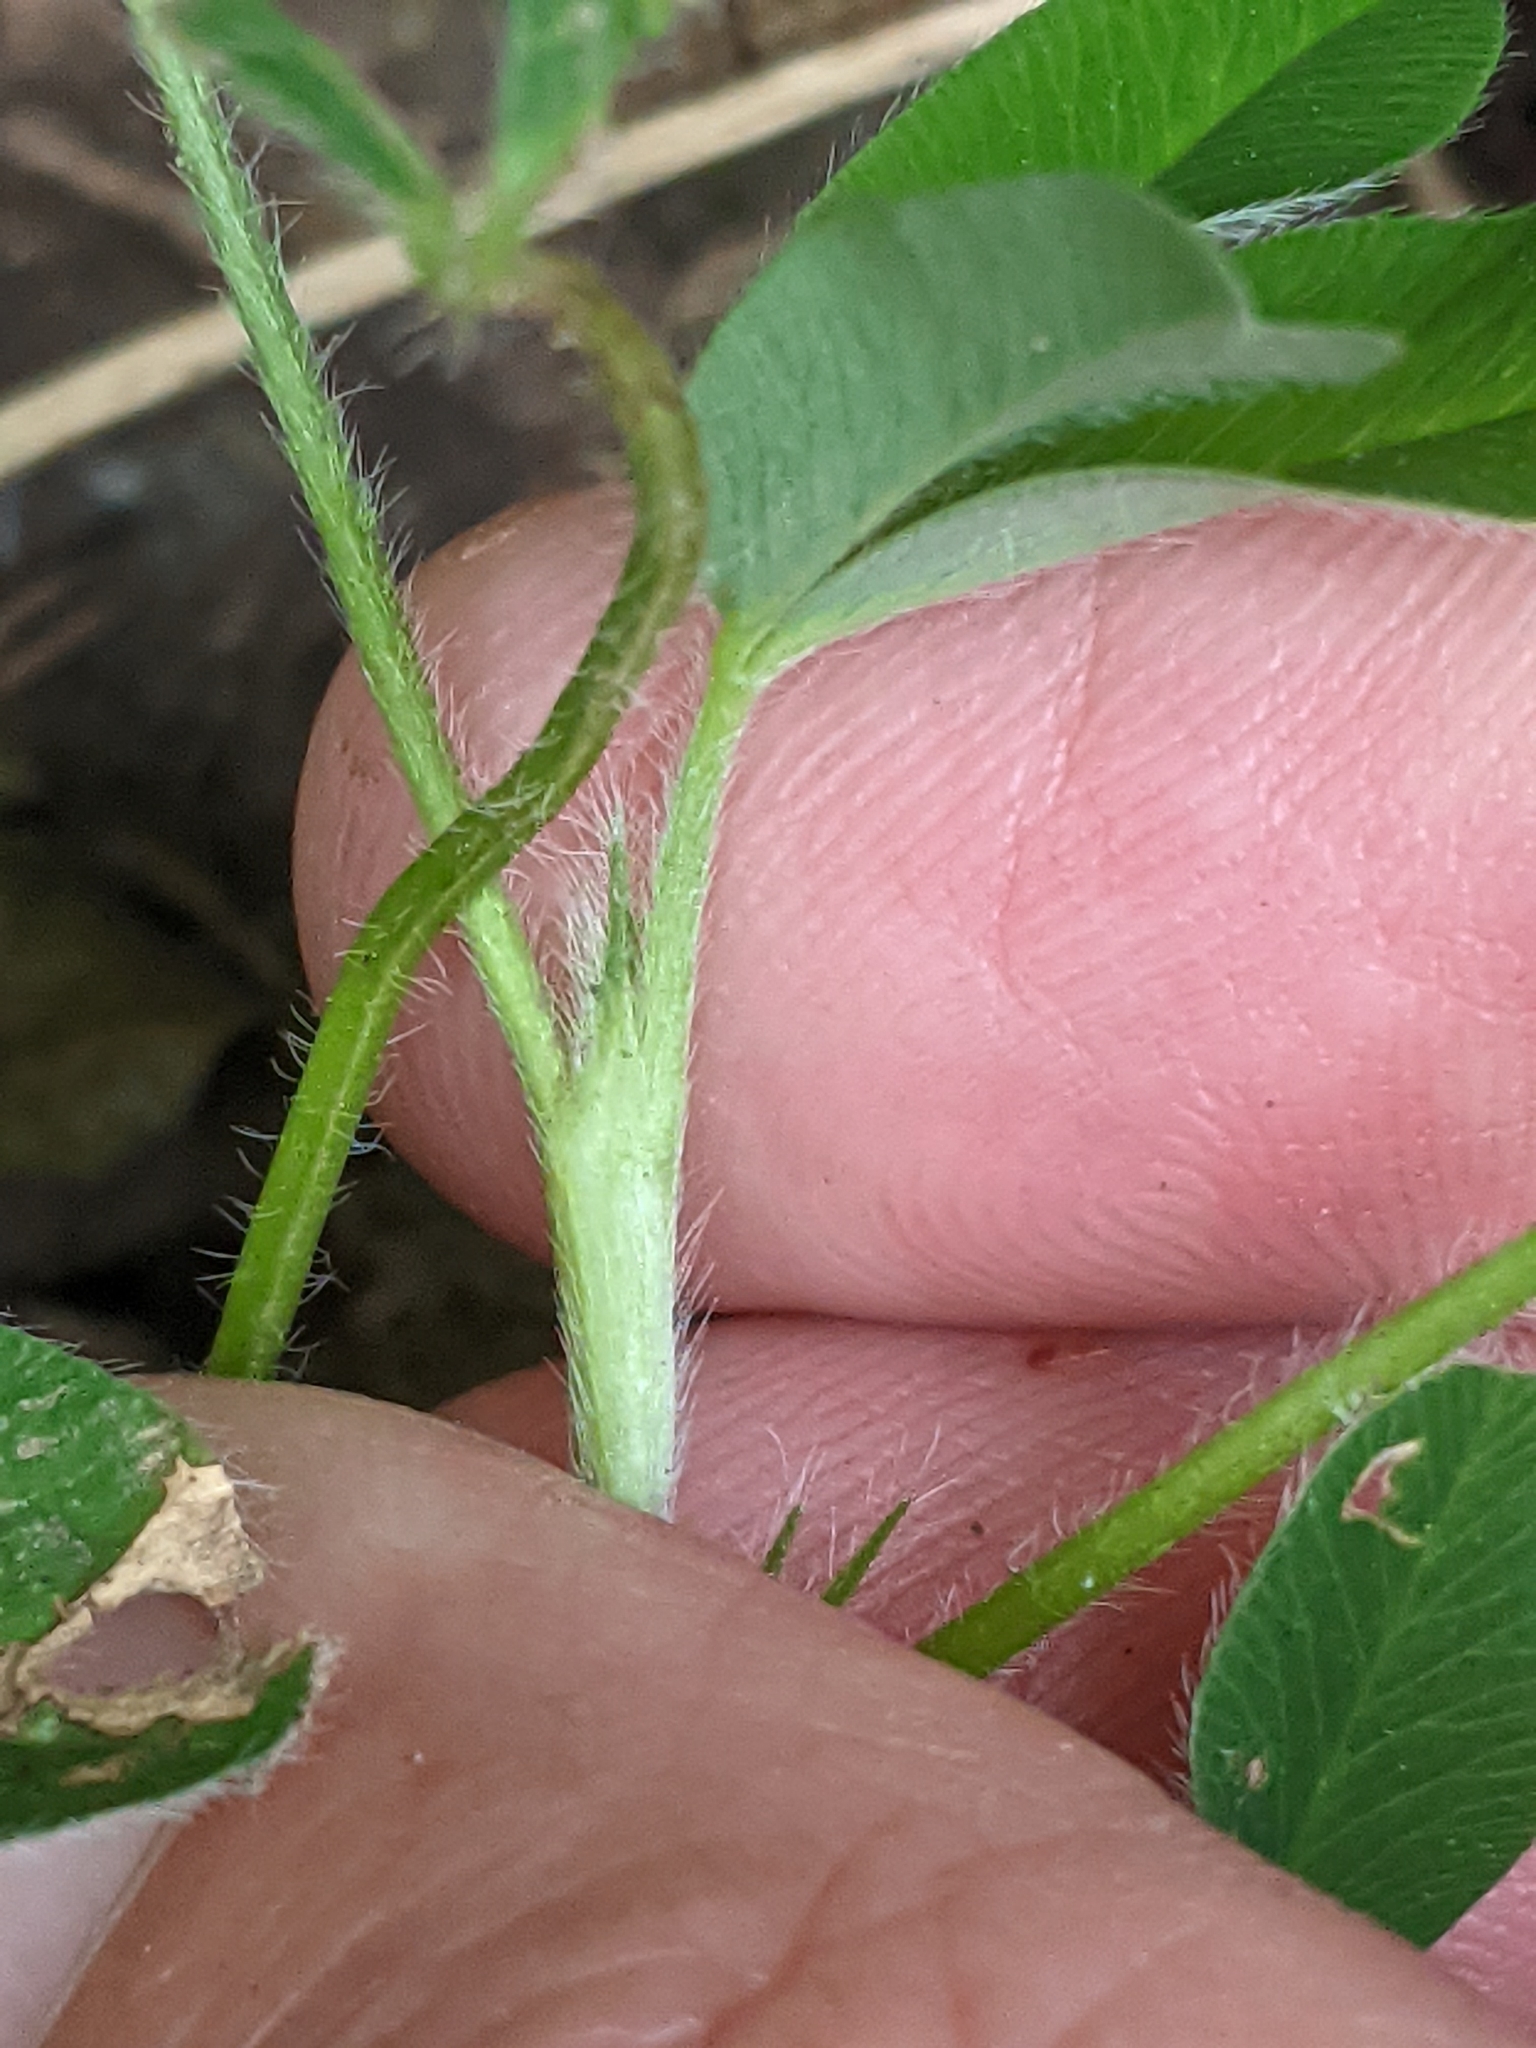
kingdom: Plantae
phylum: Tracheophyta
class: Magnoliopsida
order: Fabales
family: Fabaceae
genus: Trifolium
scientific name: Trifolium medium
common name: Zigzag clover
